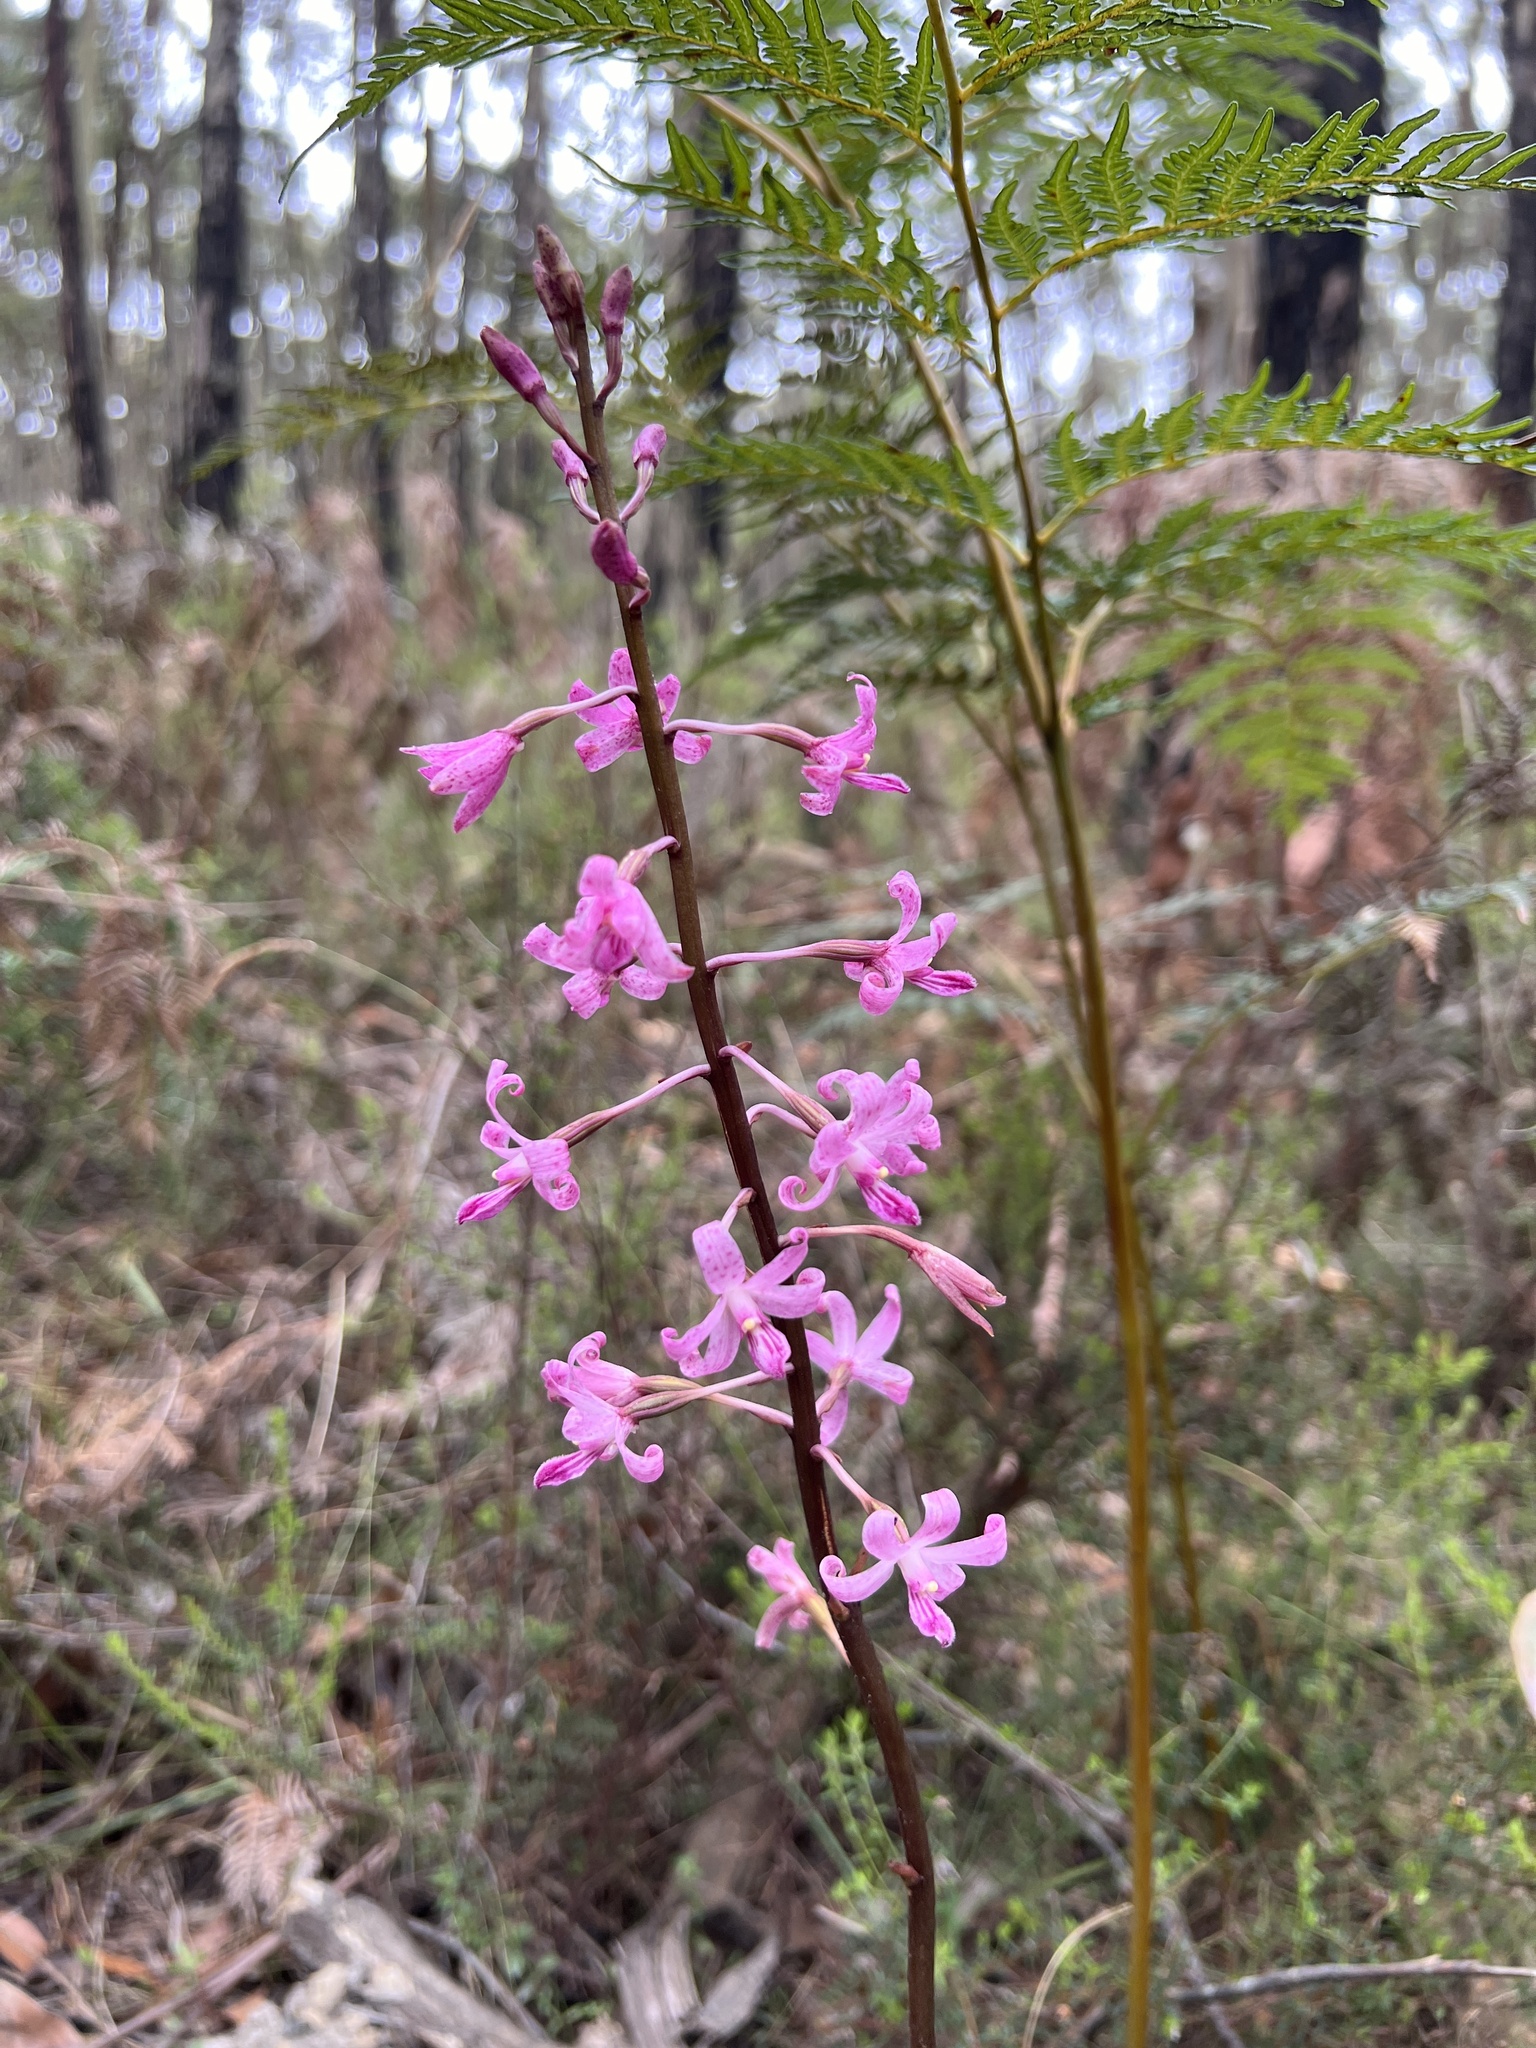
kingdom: Plantae
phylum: Tracheophyta
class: Liliopsida
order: Asparagales
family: Orchidaceae
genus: Dipodium
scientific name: Dipodium roseum
